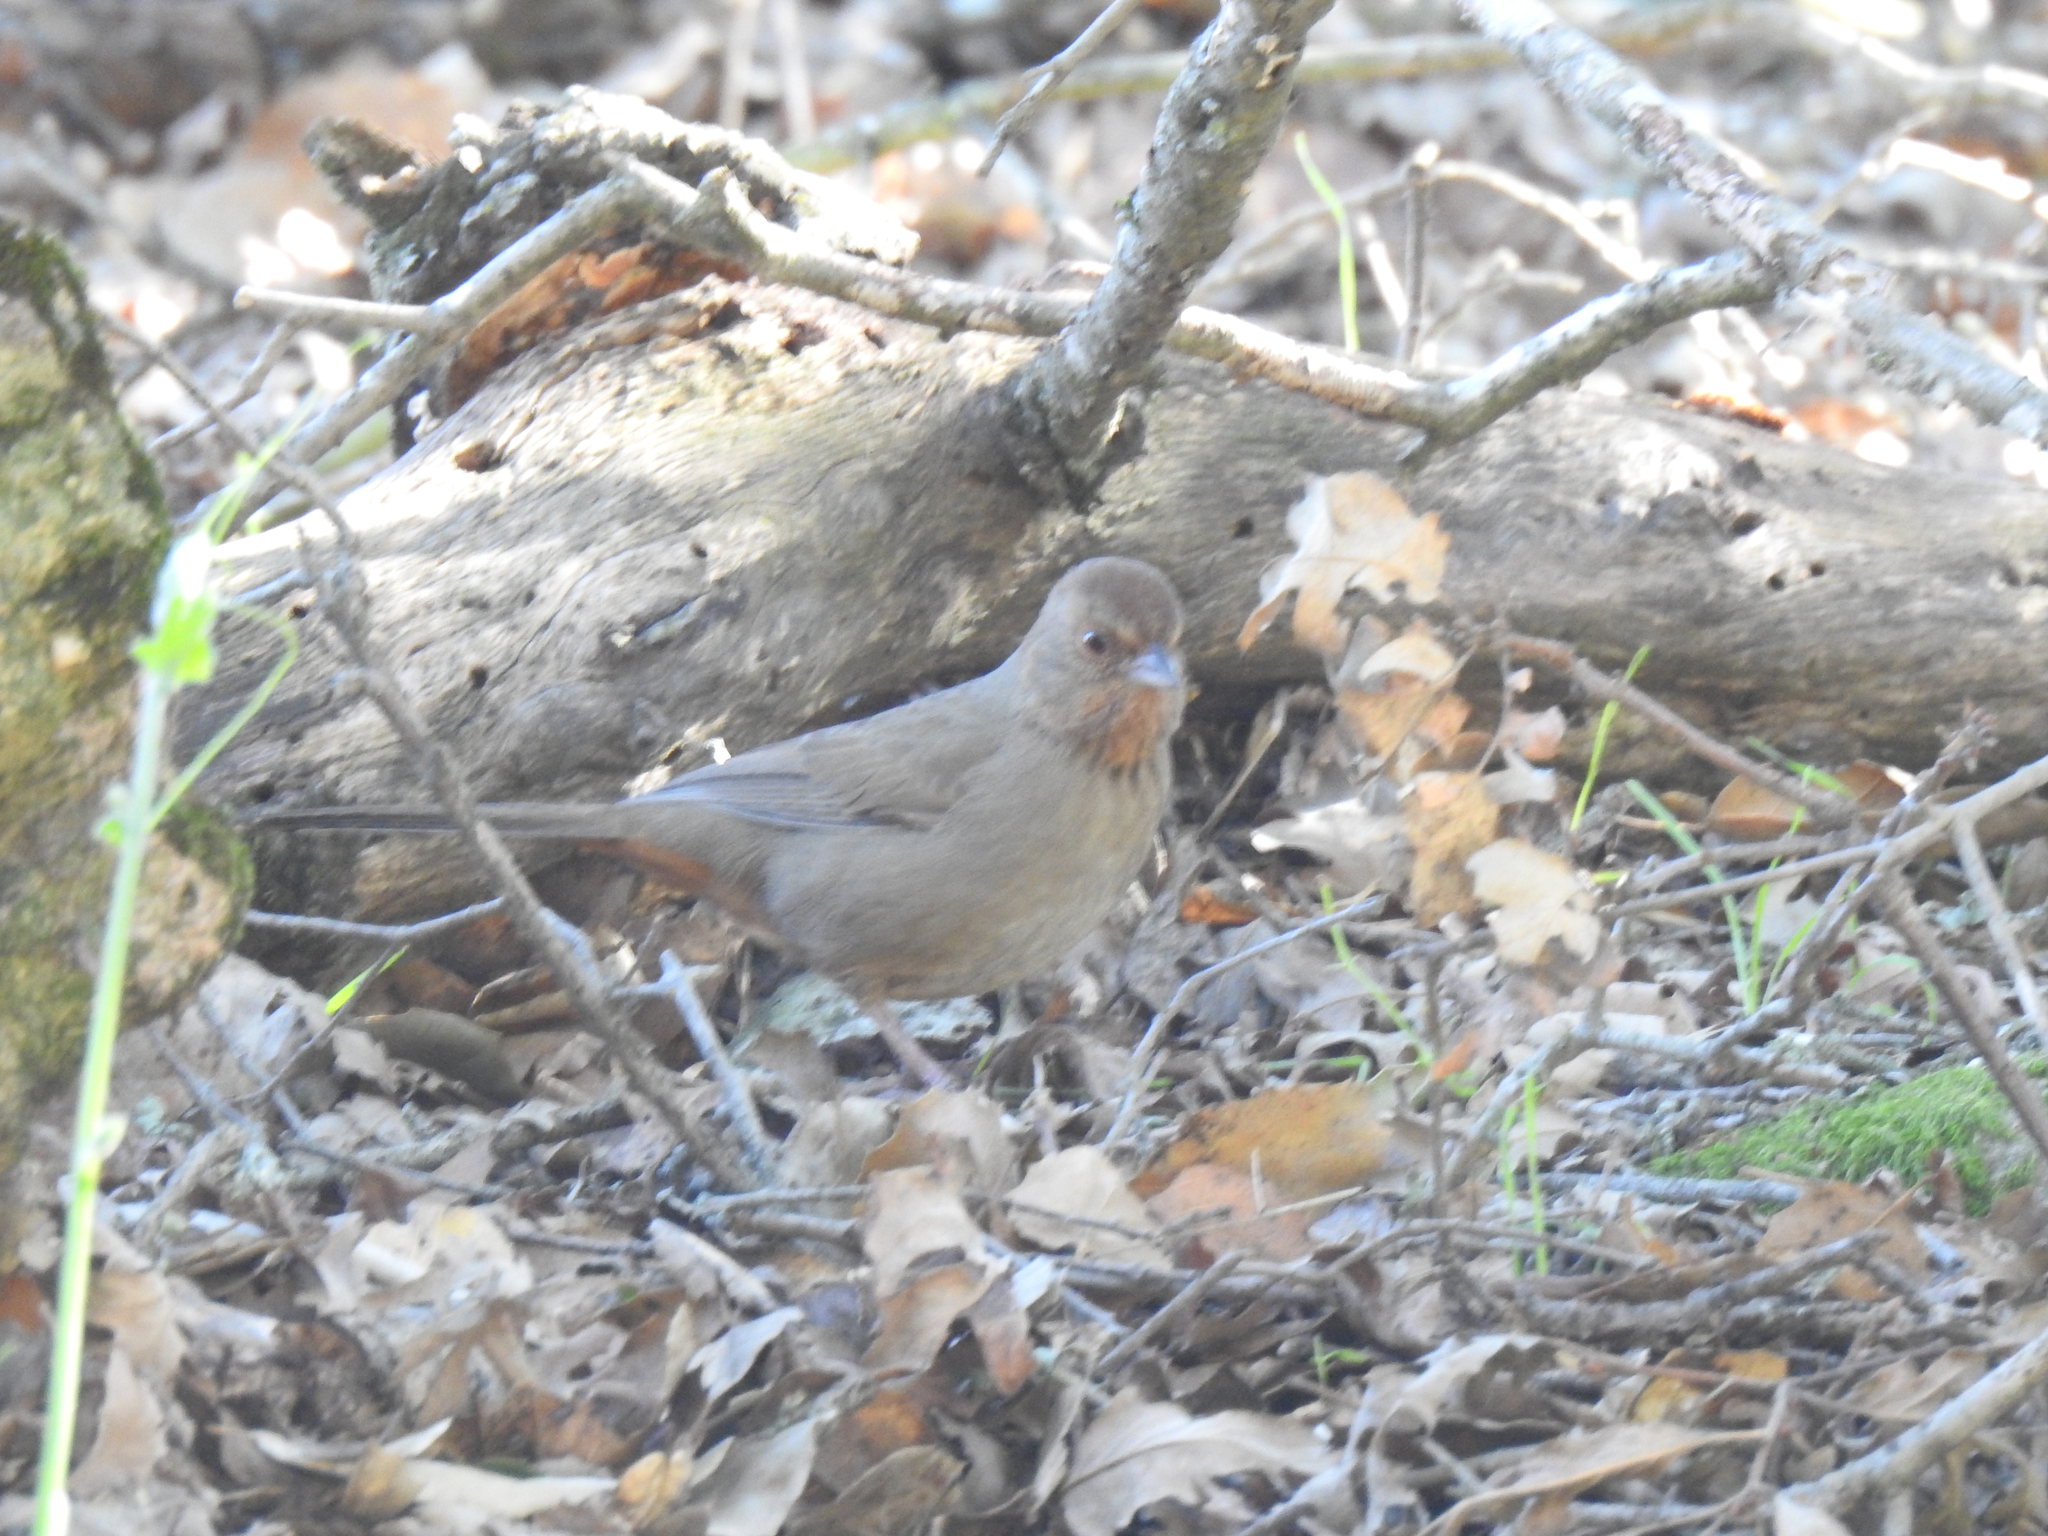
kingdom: Animalia
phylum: Chordata
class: Aves
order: Passeriformes
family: Passerellidae
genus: Melozone
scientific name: Melozone crissalis
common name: California towhee
